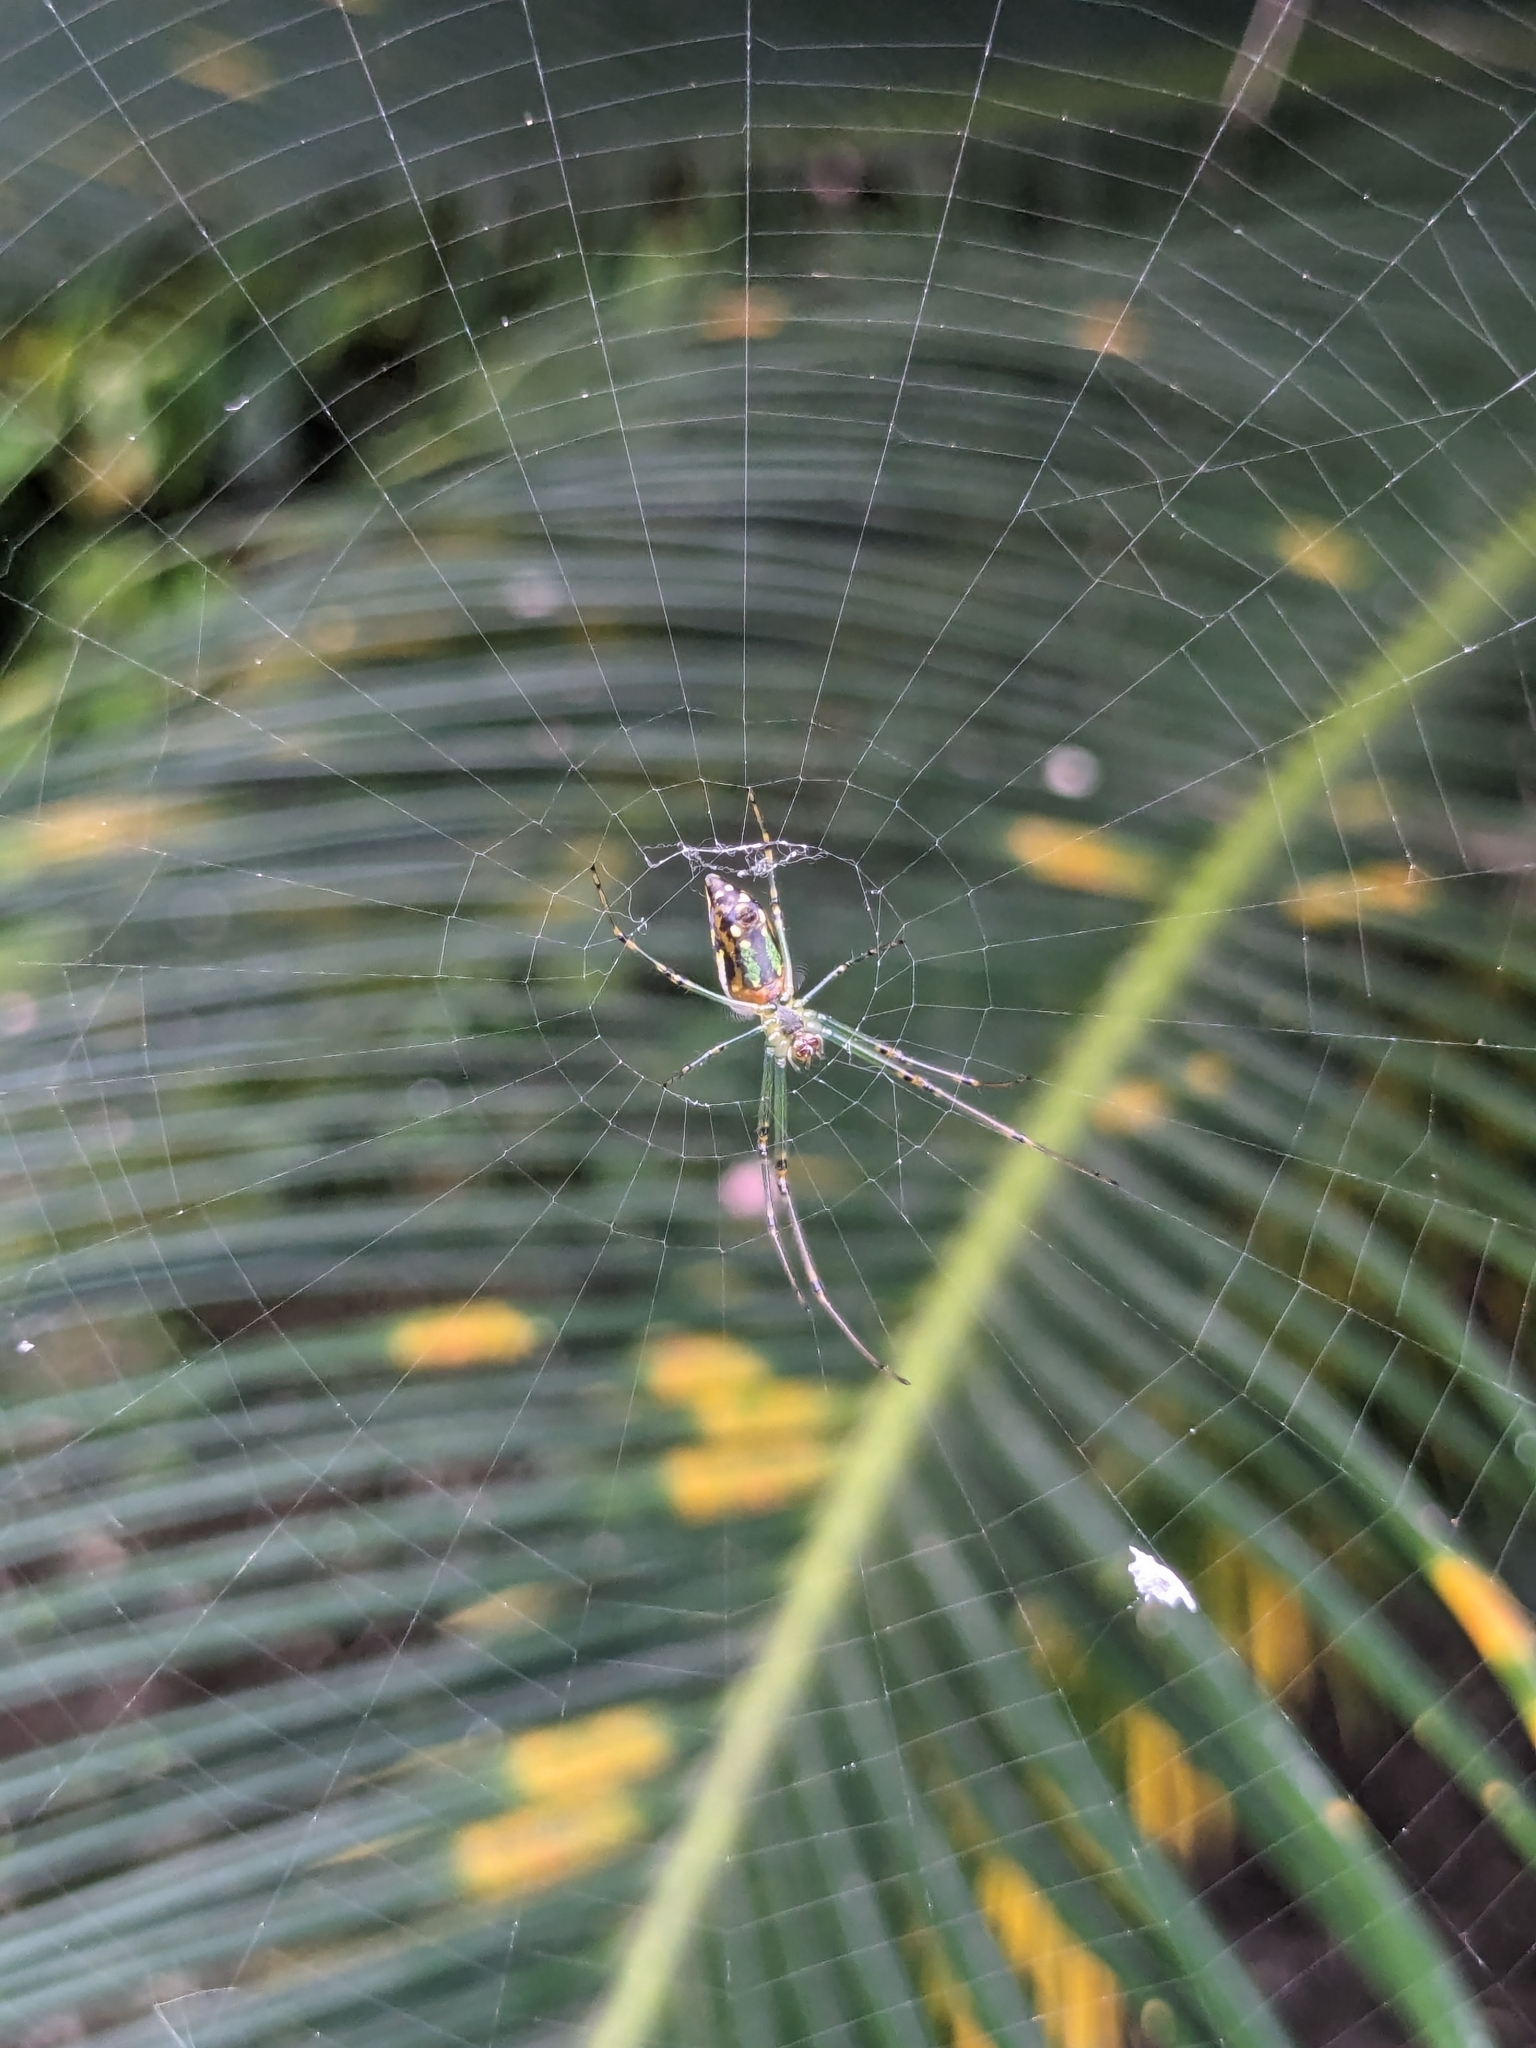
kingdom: Animalia
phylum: Arthropoda
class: Arachnida
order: Araneae
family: Tetragnathidae
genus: Leucauge
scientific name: Leucauge celebesiana
